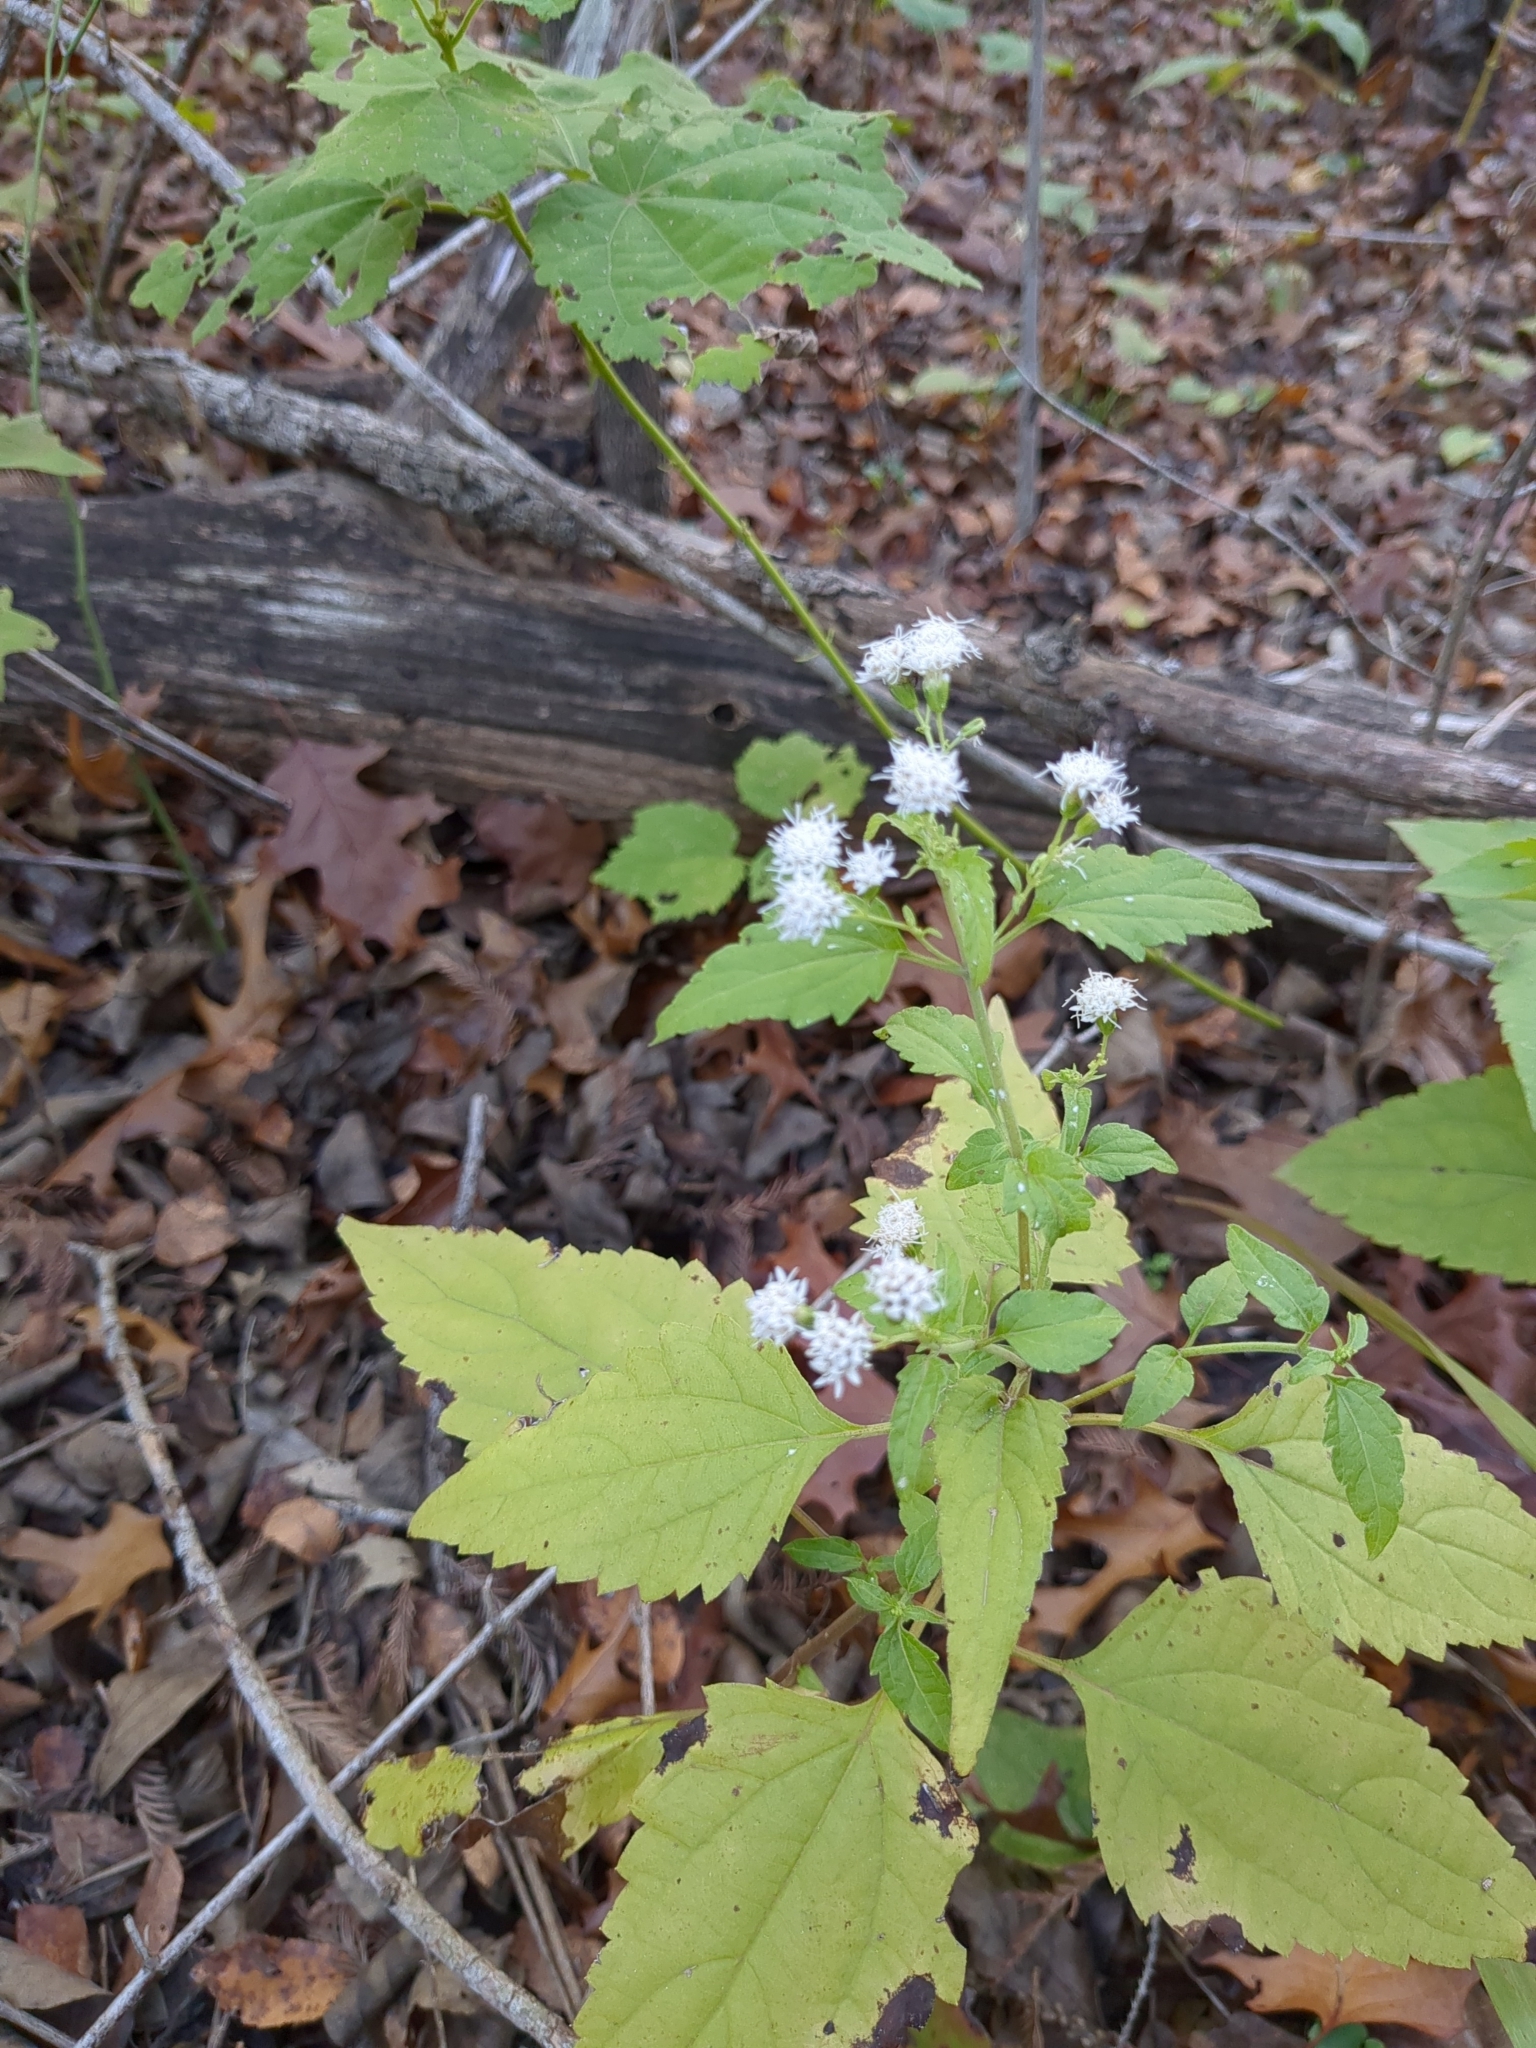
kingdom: Plantae
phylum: Tracheophyta
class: Magnoliopsida
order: Asterales
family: Asteraceae
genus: Ageratina
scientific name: Ageratina havanensis
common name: Havana snakeroot
